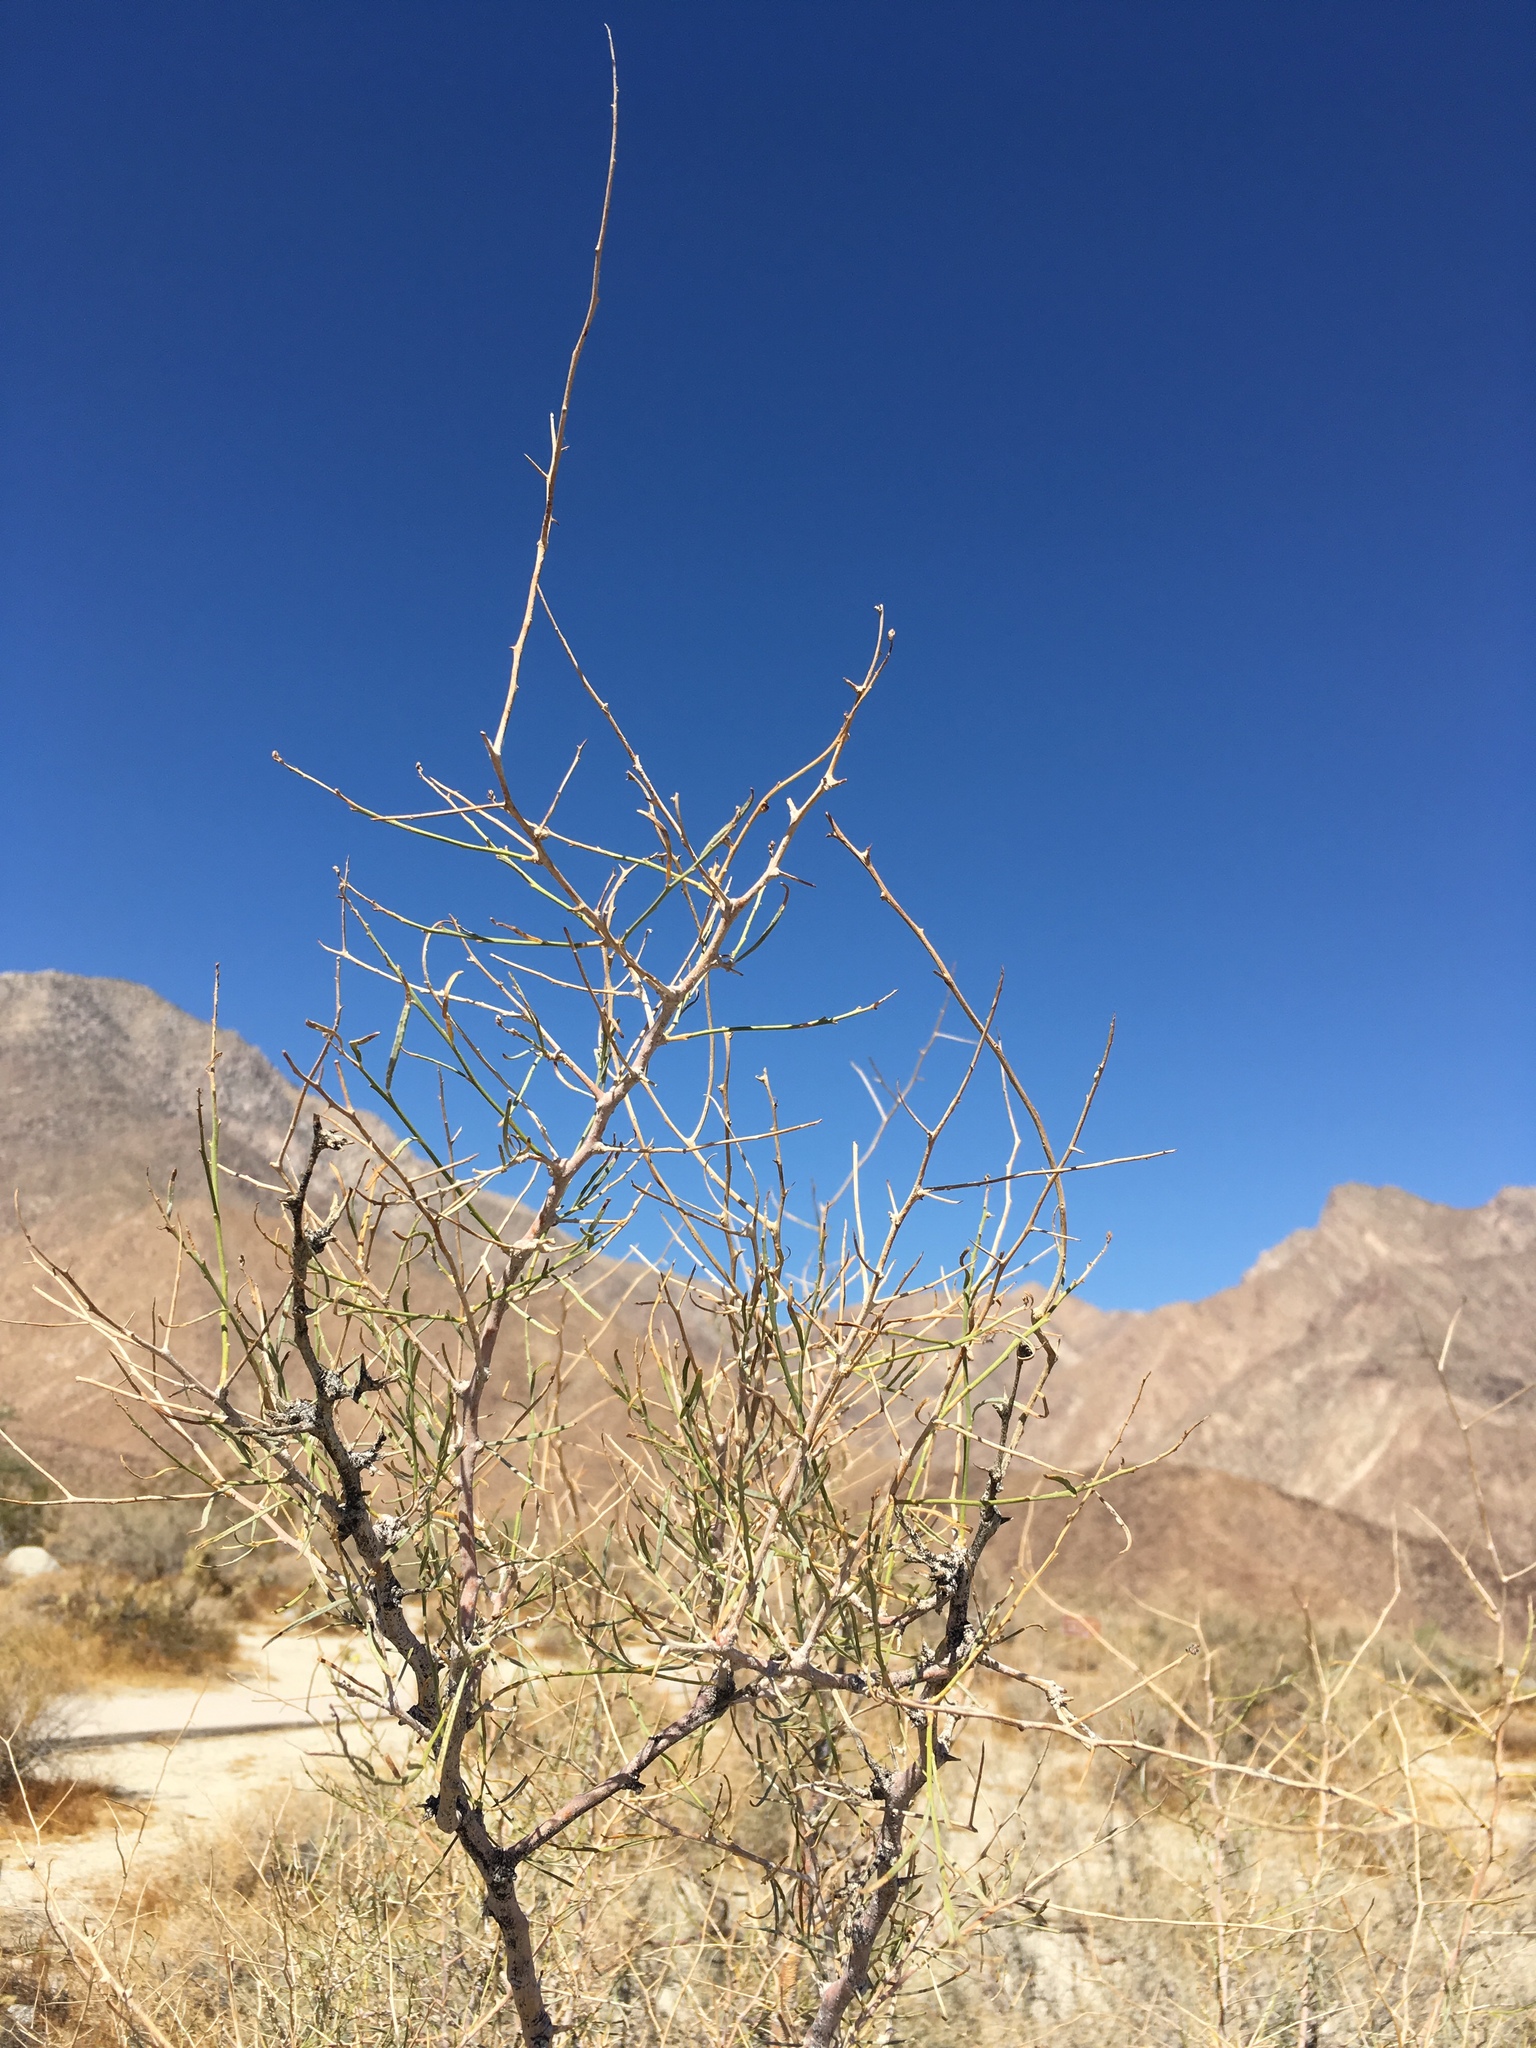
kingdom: Plantae
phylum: Tracheophyta
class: Magnoliopsida
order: Fabales
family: Fabaceae
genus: Psorothamnus
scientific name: Psorothamnus schottii
